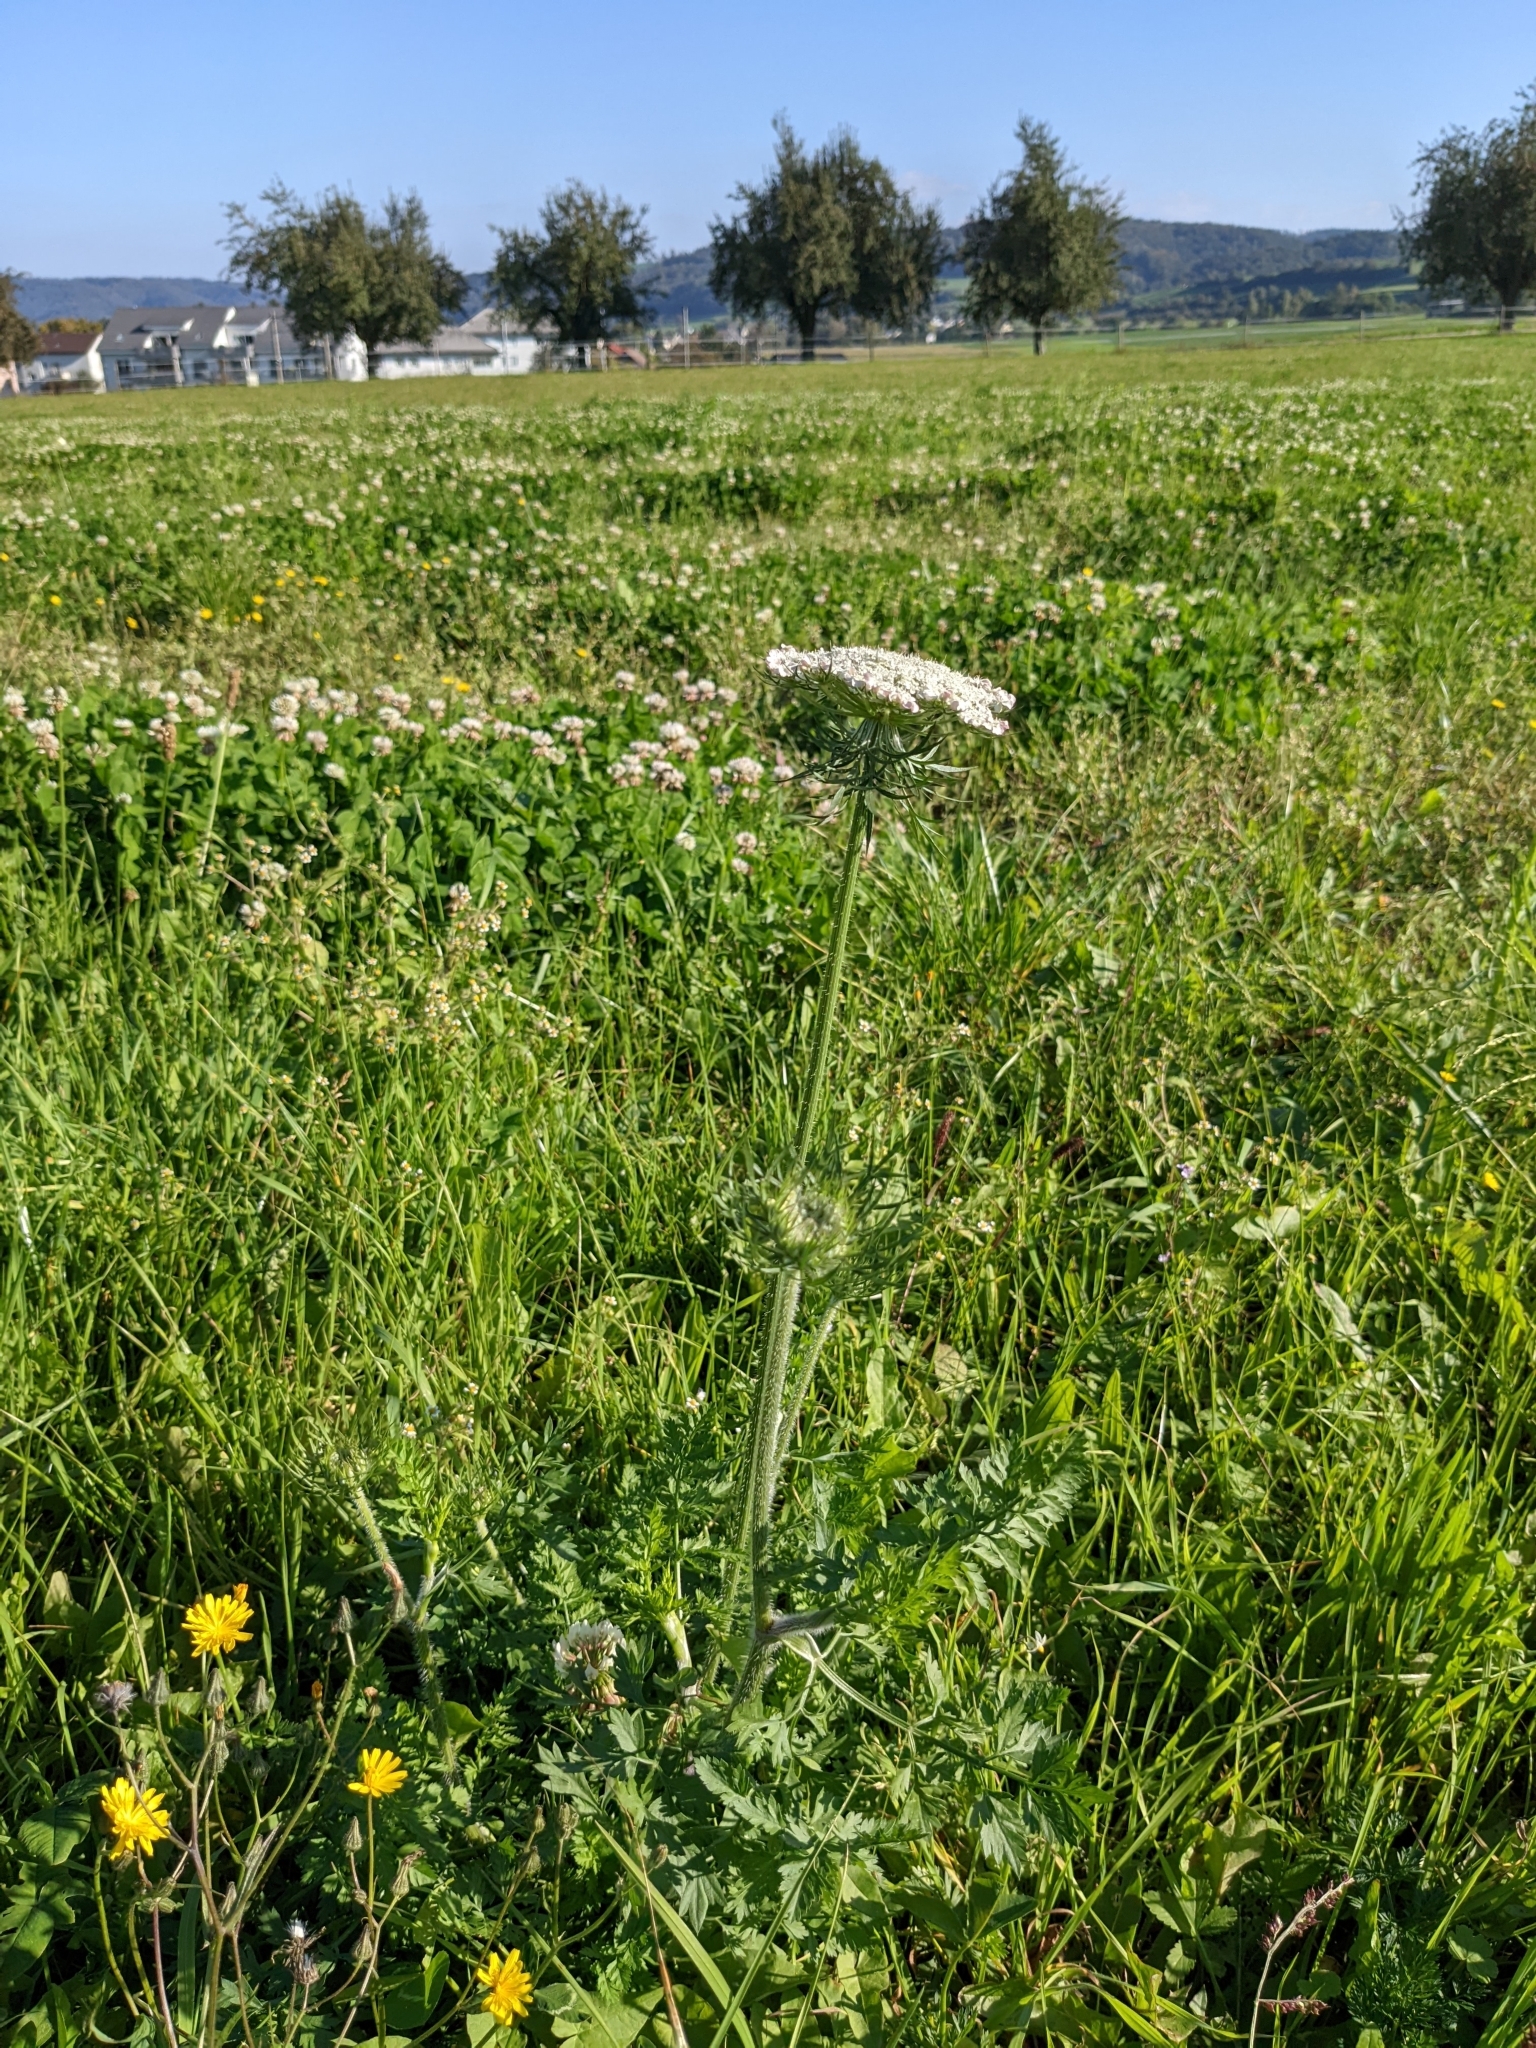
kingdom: Plantae
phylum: Tracheophyta
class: Magnoliopsida
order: Apiales
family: Apiaceae
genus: Daucus
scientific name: Daucus carota
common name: Wild carrot
